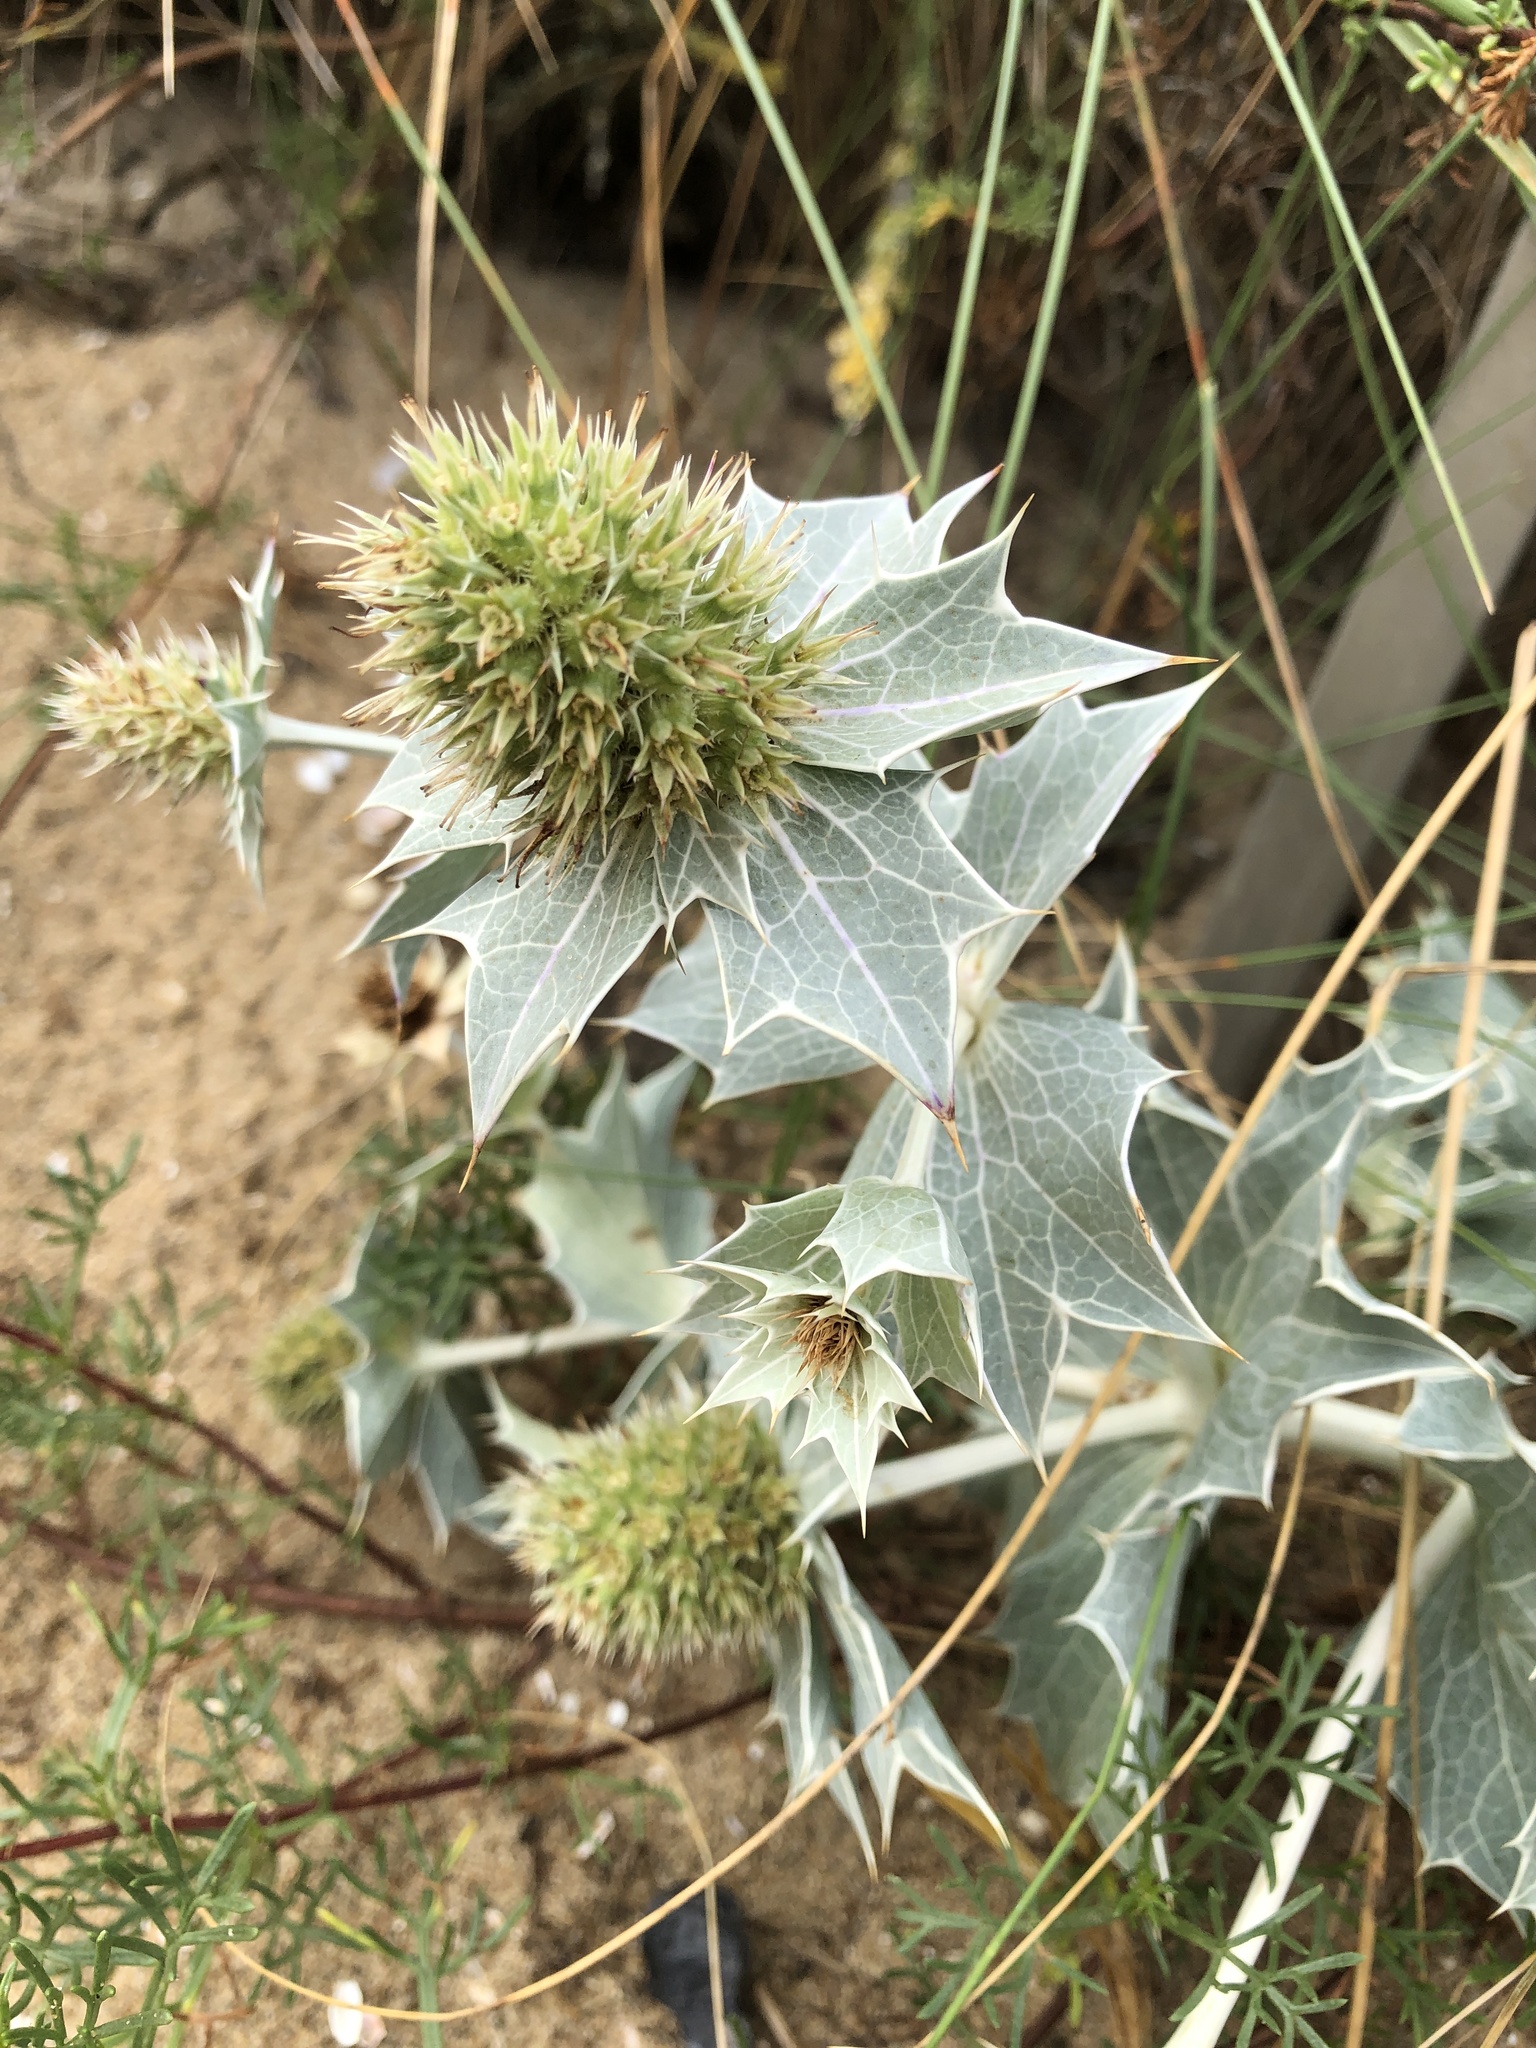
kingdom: Plantae
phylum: Tracheophyta
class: Magnoliopsida
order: Apiales
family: Apiaceae
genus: Eryngium
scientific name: Eryngium maritimum
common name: Sea-holly
